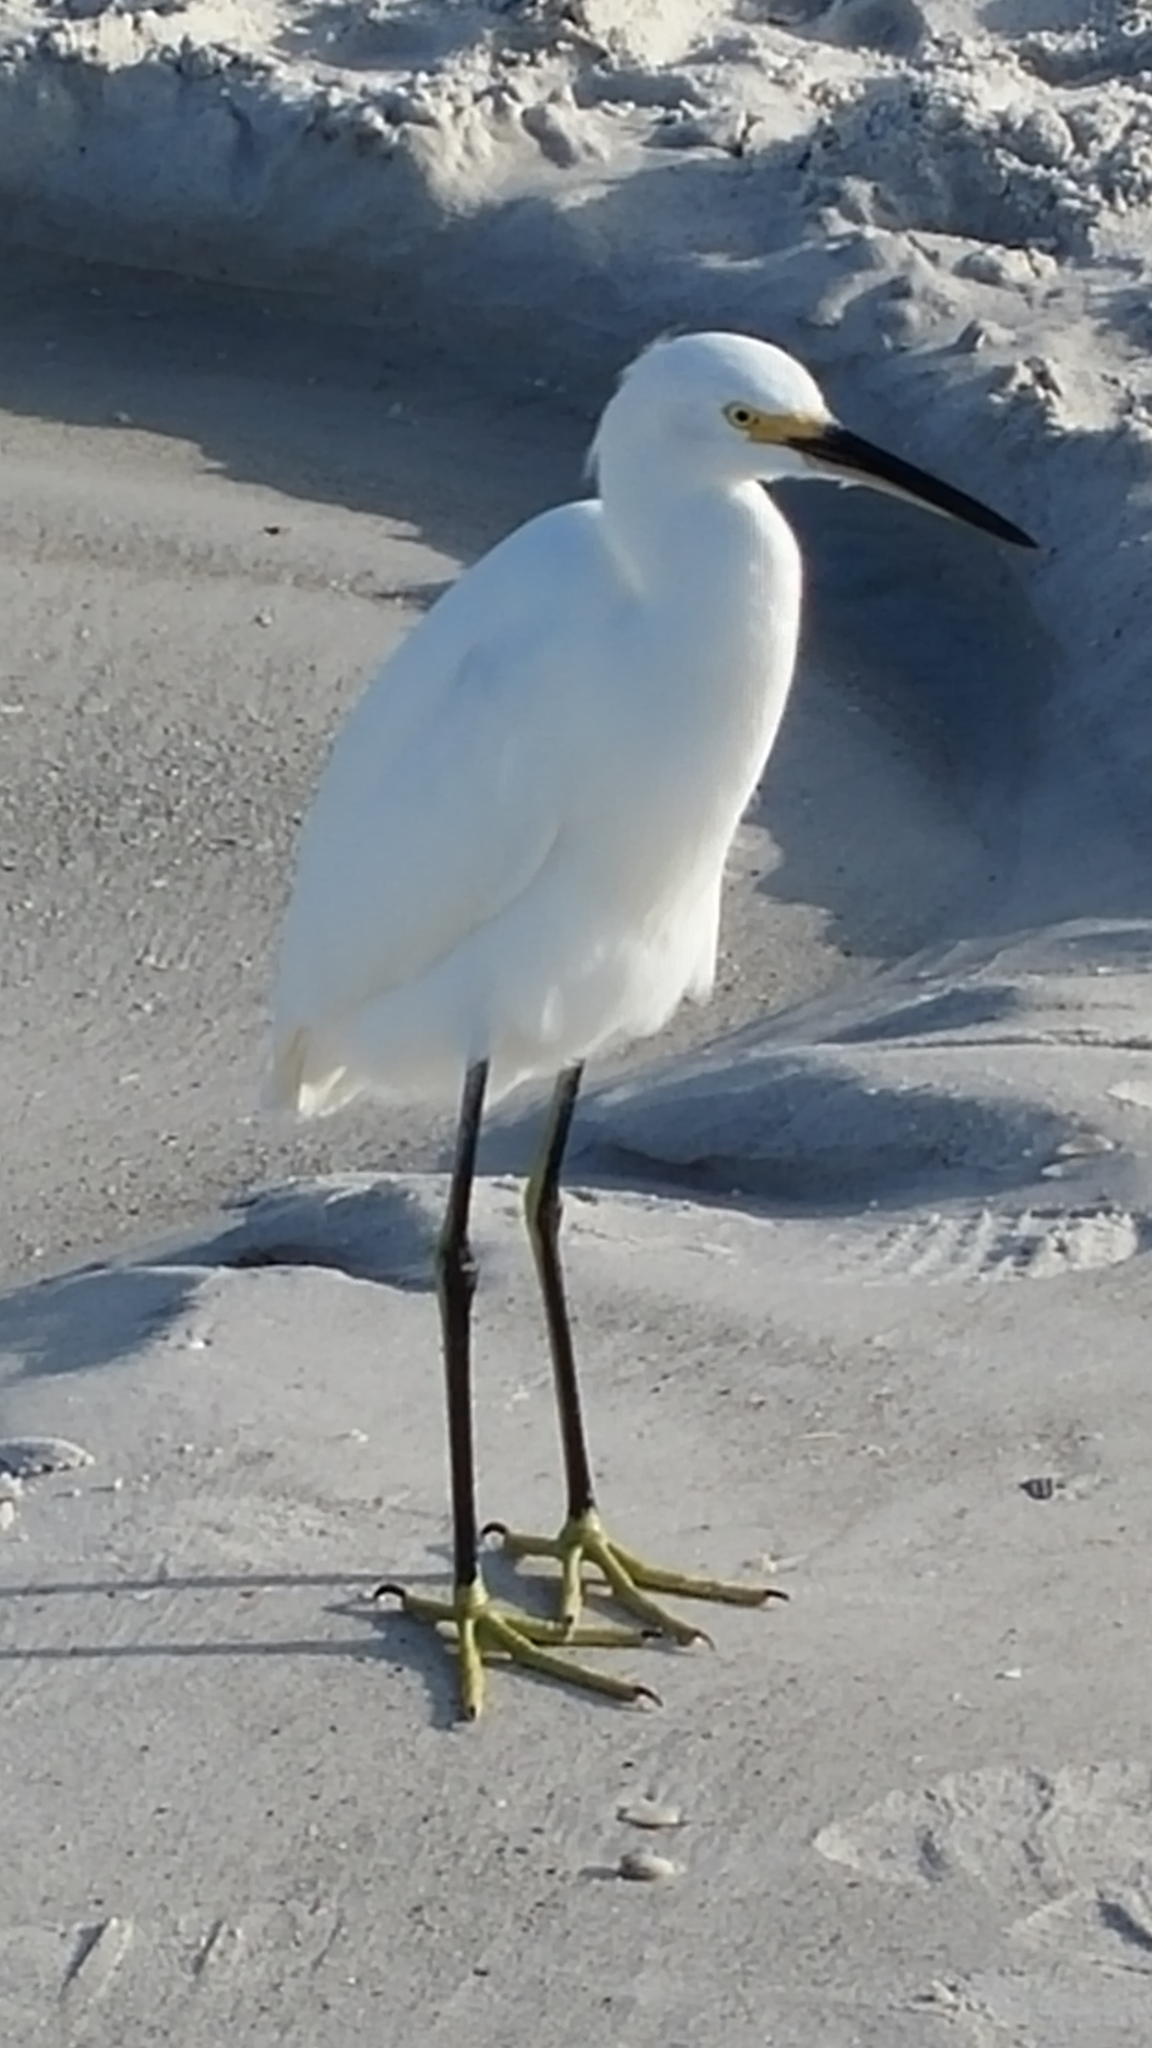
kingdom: Animalia
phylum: Chordata
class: Aves
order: Pelecaniformes
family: Ardeidae
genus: Egretta
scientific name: Egretta thula
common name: Snowy egret
